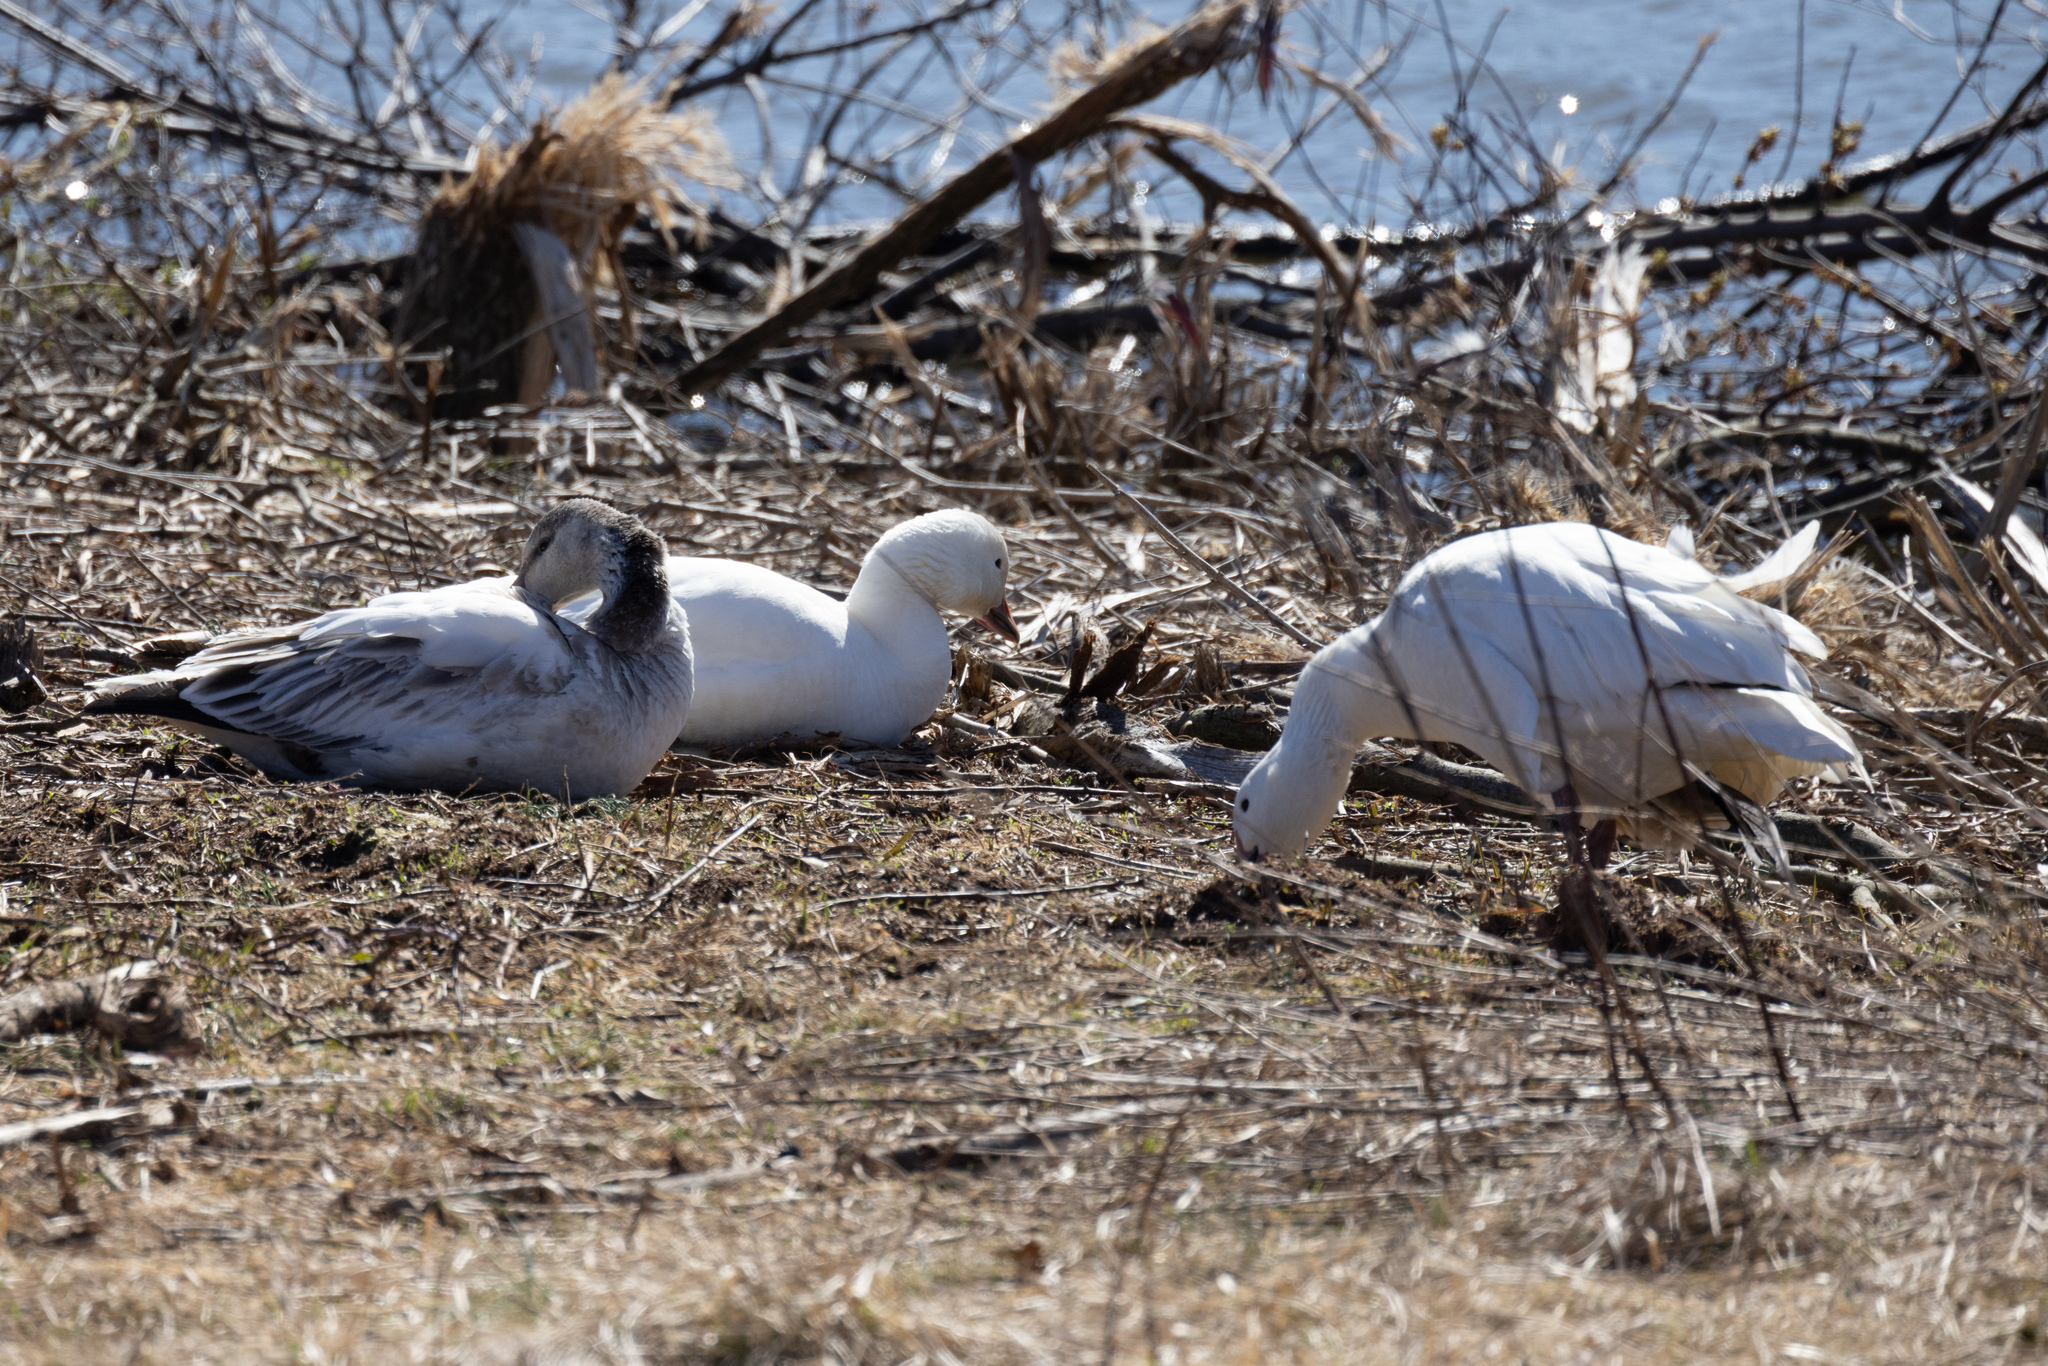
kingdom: Animalia
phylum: Chordata
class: Aves
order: Anseriformes
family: Anatidae
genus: Anser
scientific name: Anser caerulescens
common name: Snow goose
